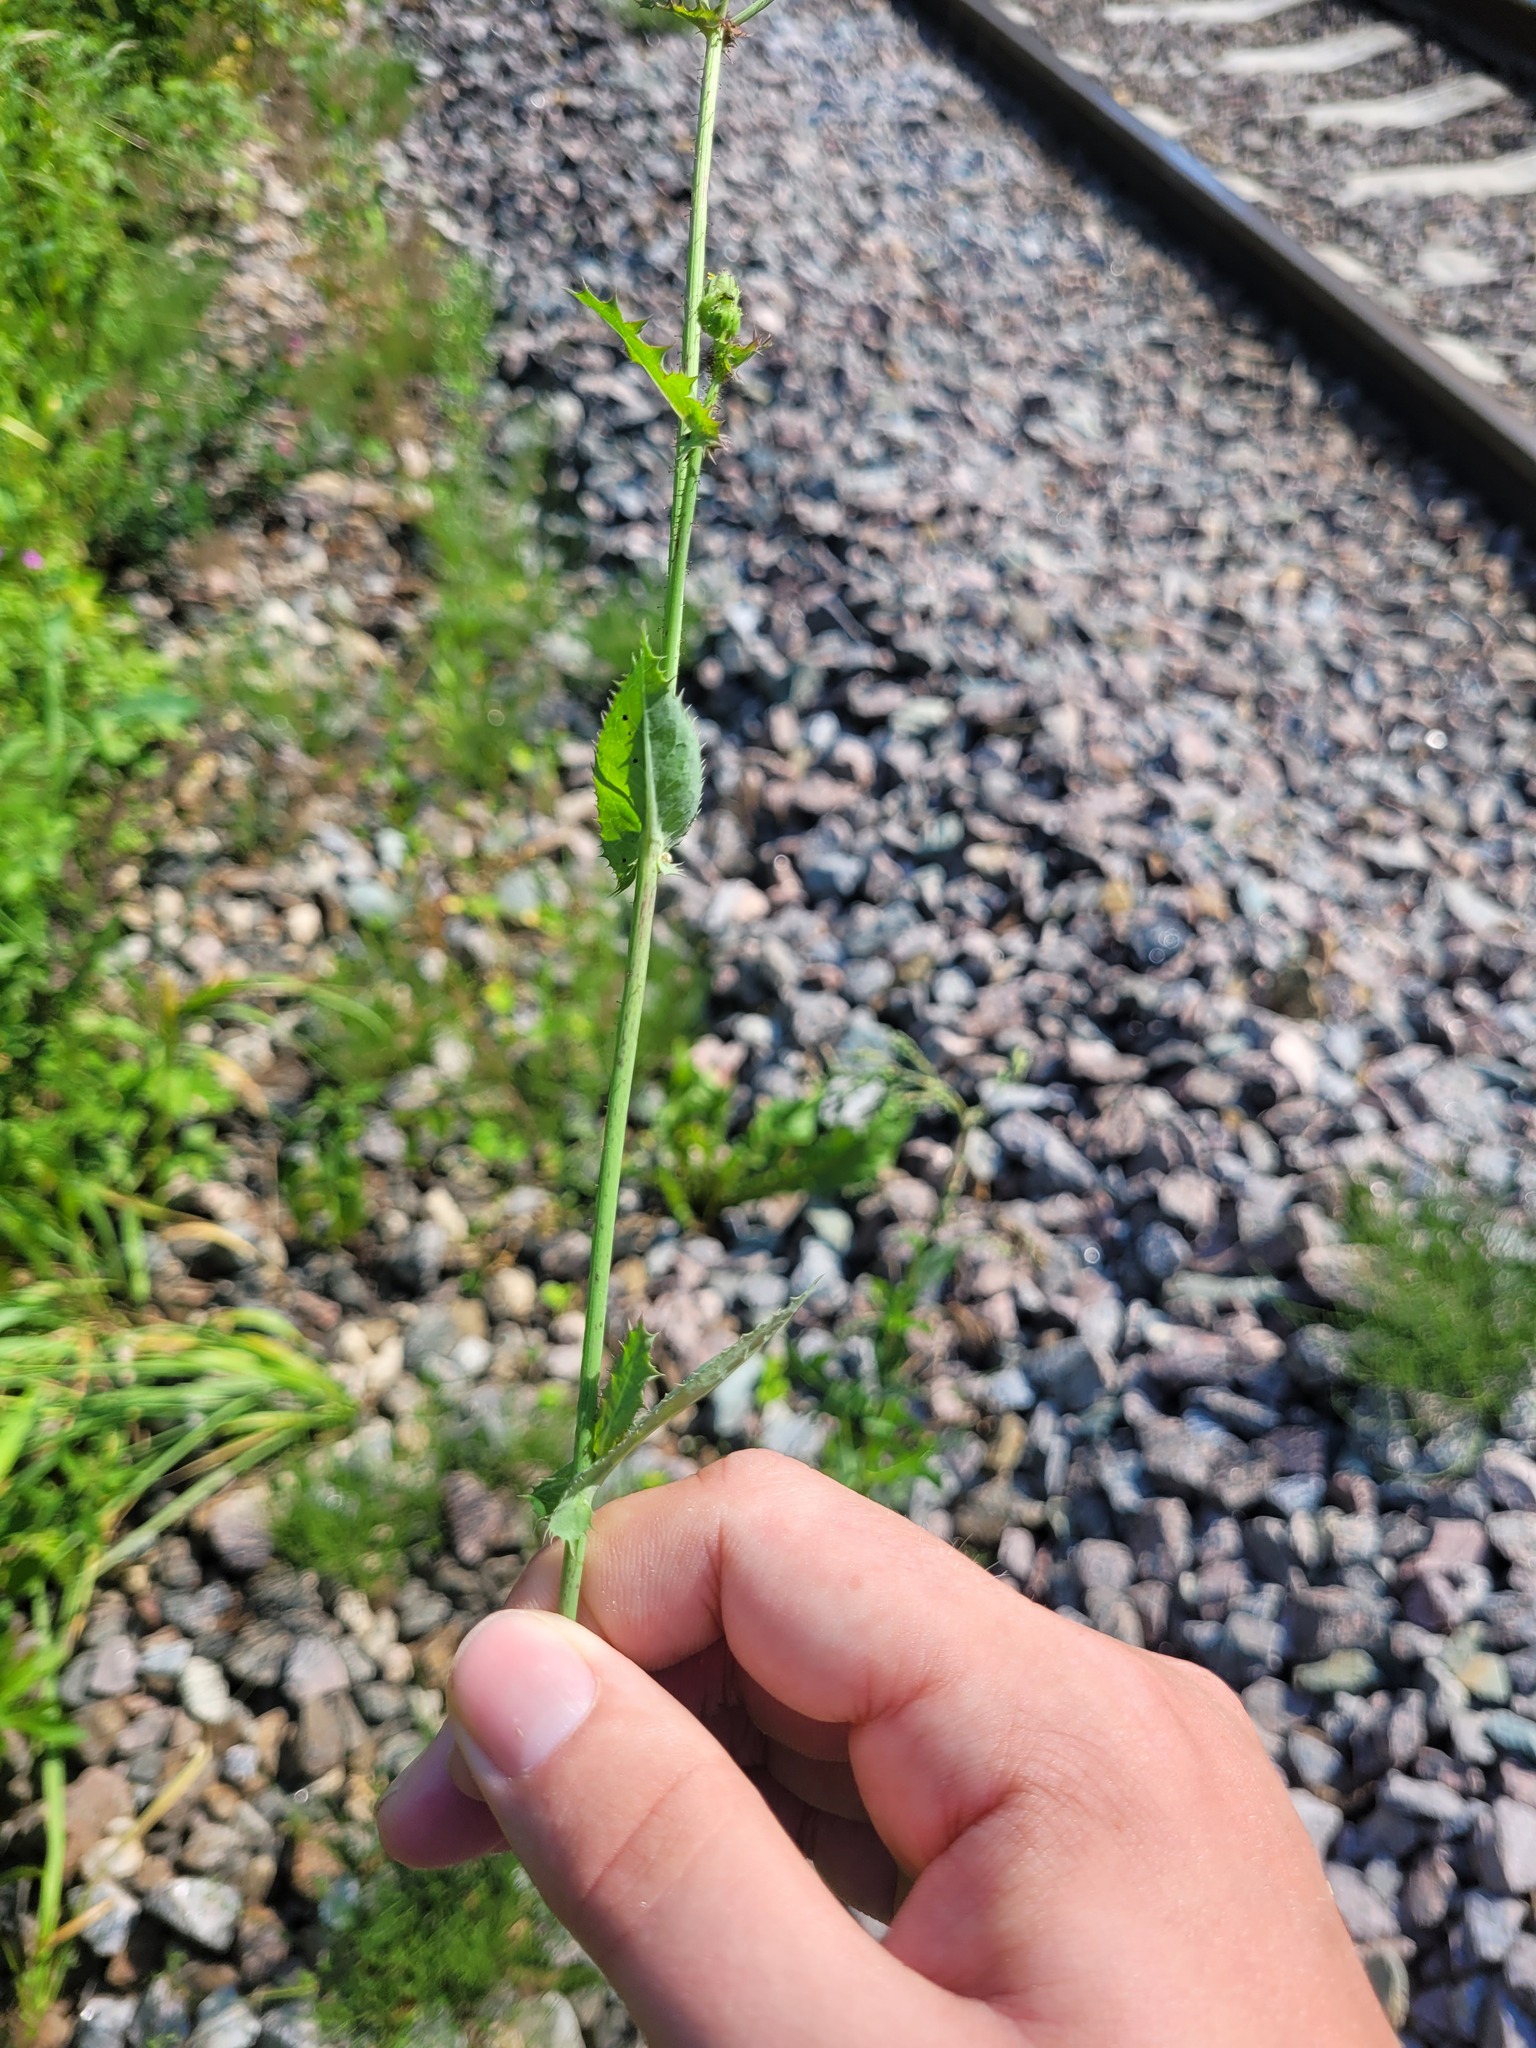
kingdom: Plantae
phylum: Tracheophyta
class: Magnoliopsida
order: Asterales
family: Asteraceae
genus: Sonchus
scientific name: Sonchus asper
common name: Prickly sow-thistle
